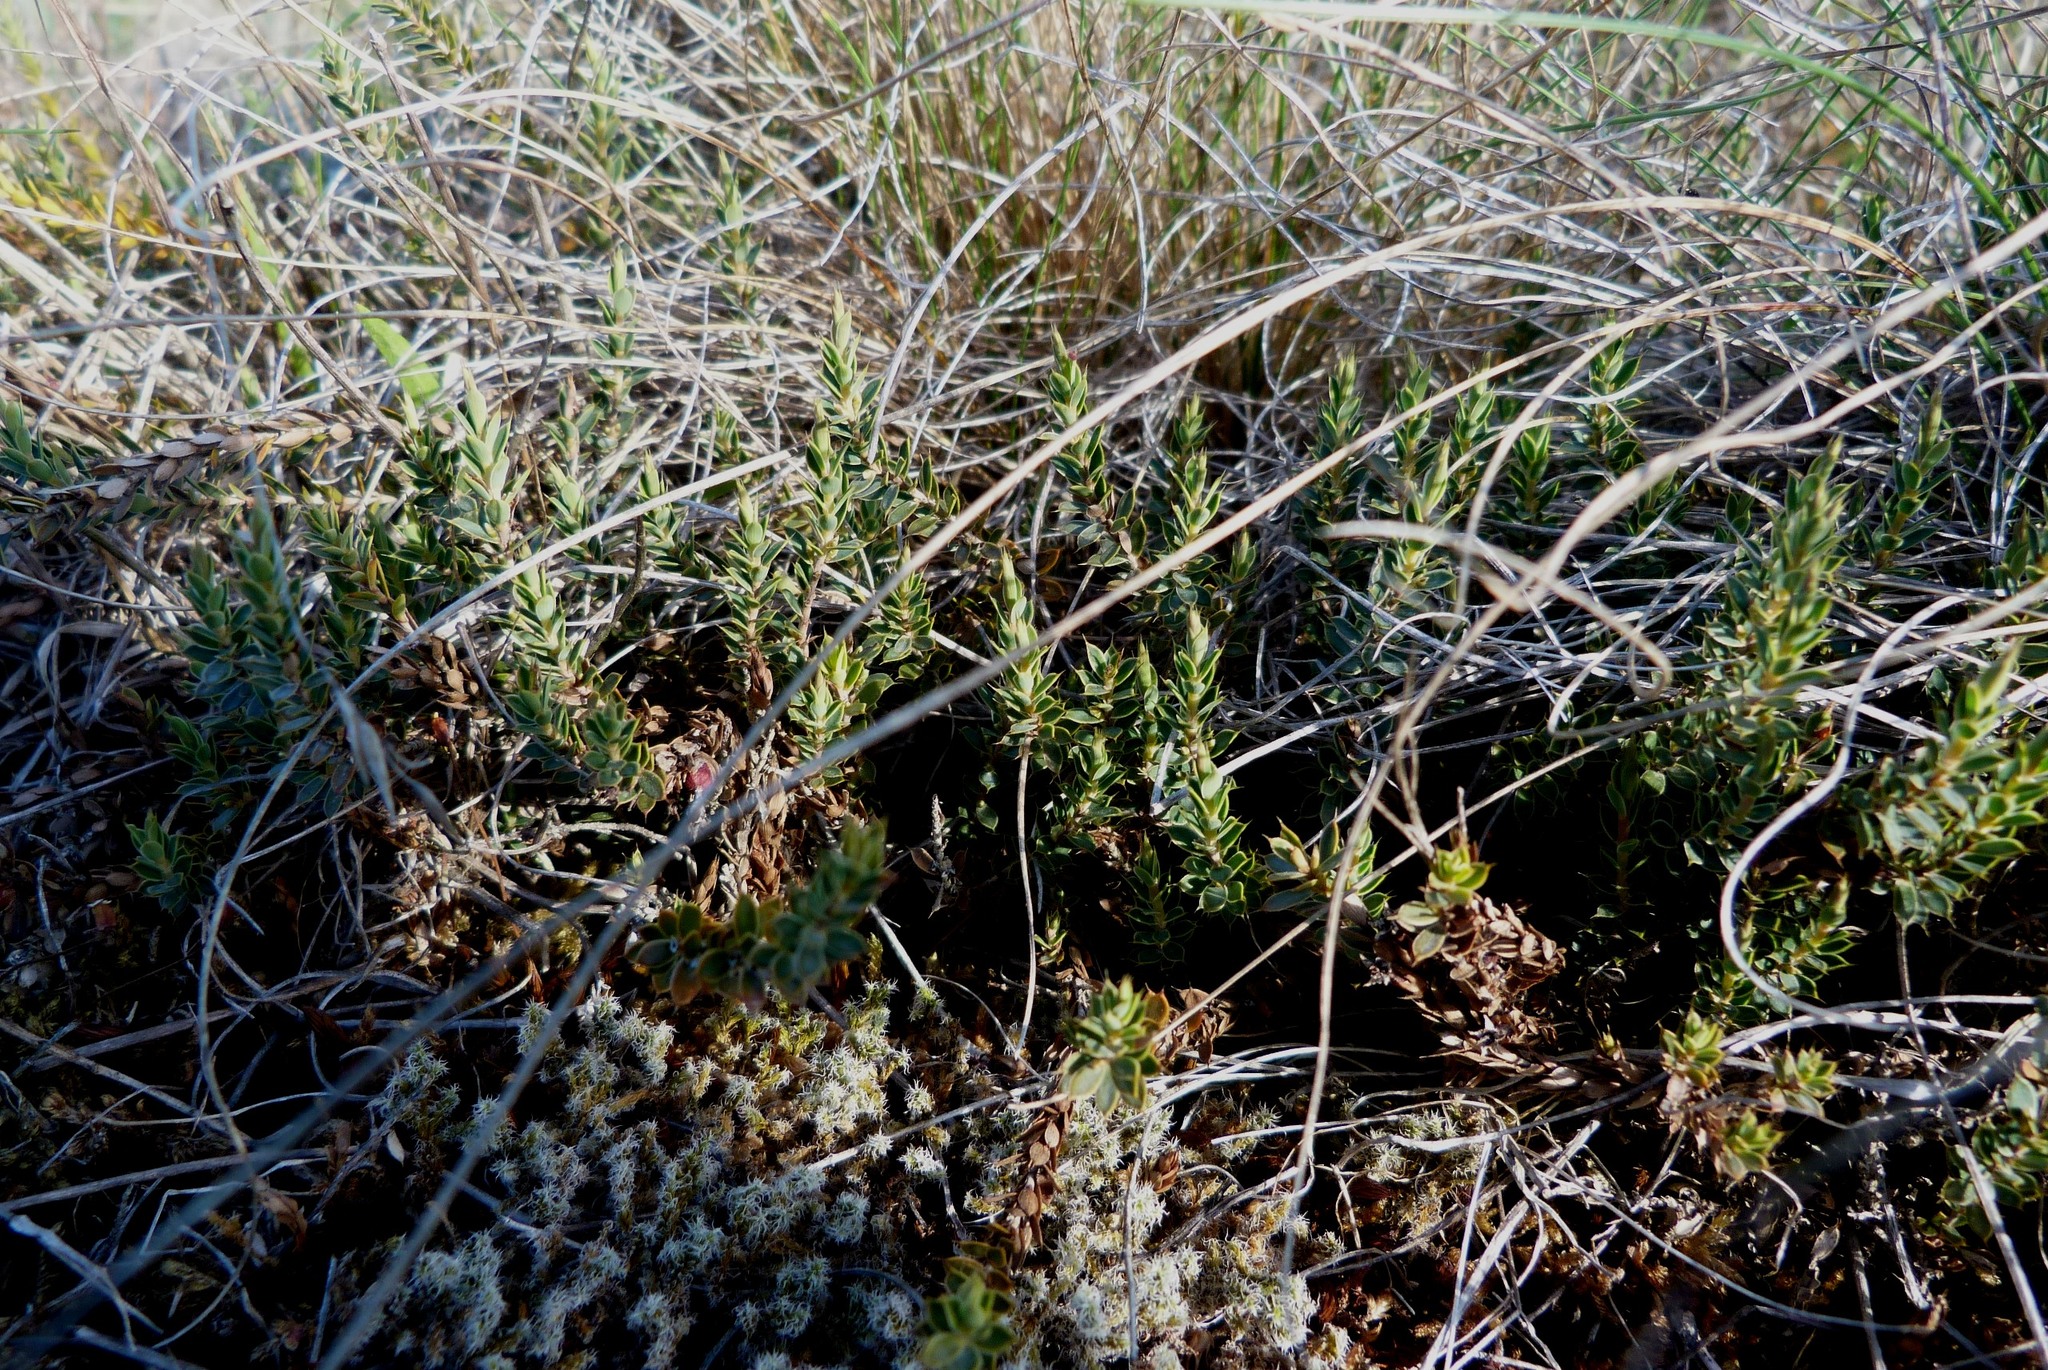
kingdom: Plantae
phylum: Tracheophyta
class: Magnoliopsida
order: Ericales
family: Ericaceae
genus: Styphelia
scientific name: Styphelia nesophila
